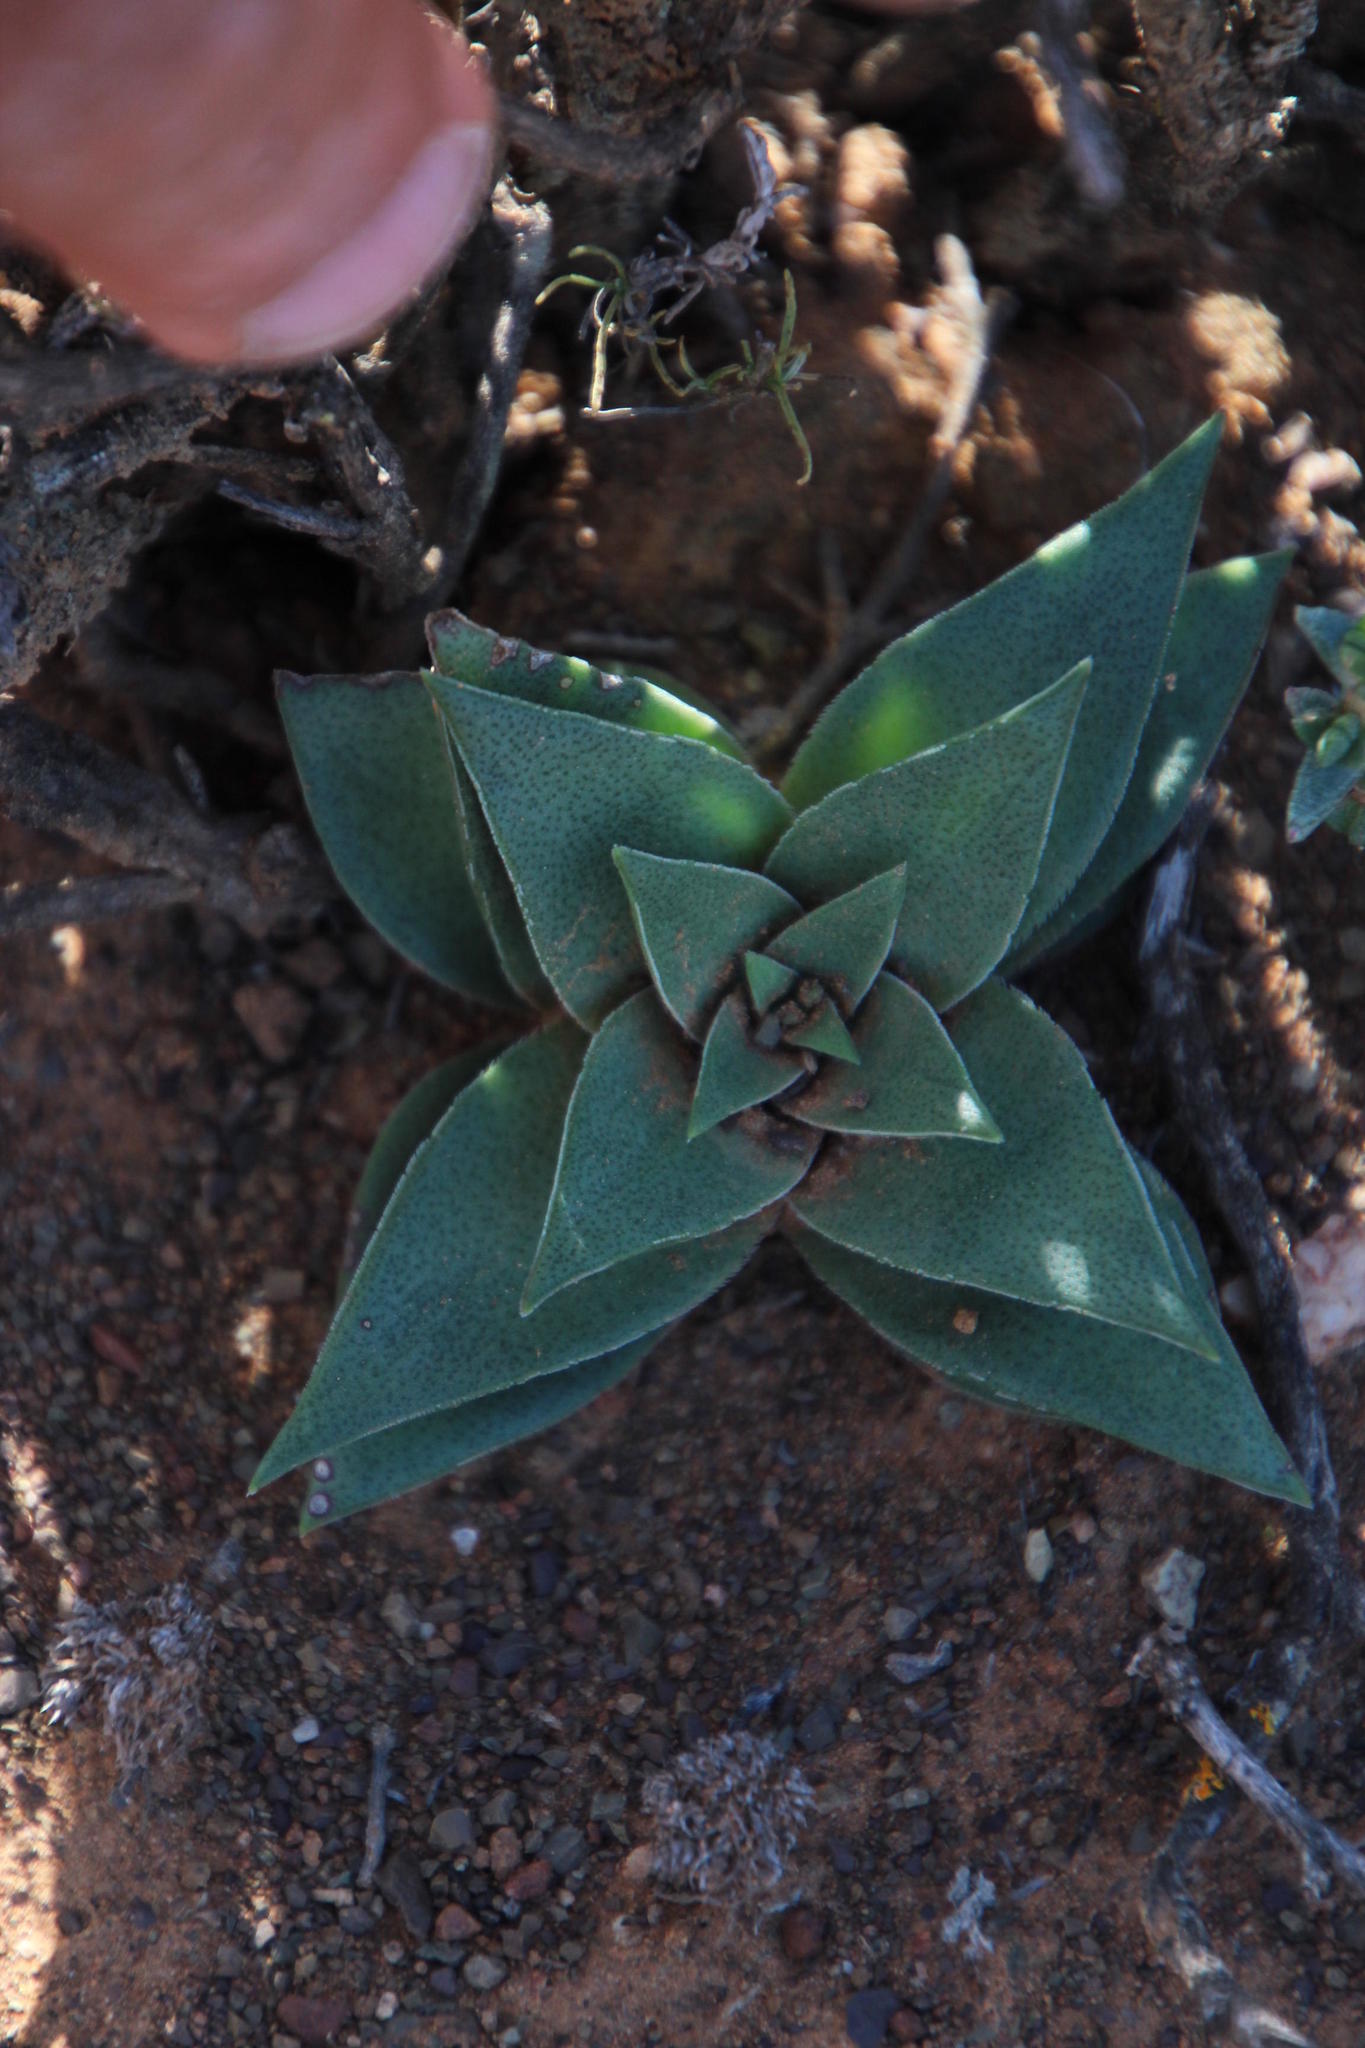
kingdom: Plantae
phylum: Tracheophyta
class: Magnoliopsida
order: Saxifragales
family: Crassulaceae
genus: Crassula
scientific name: Crassula capitella
